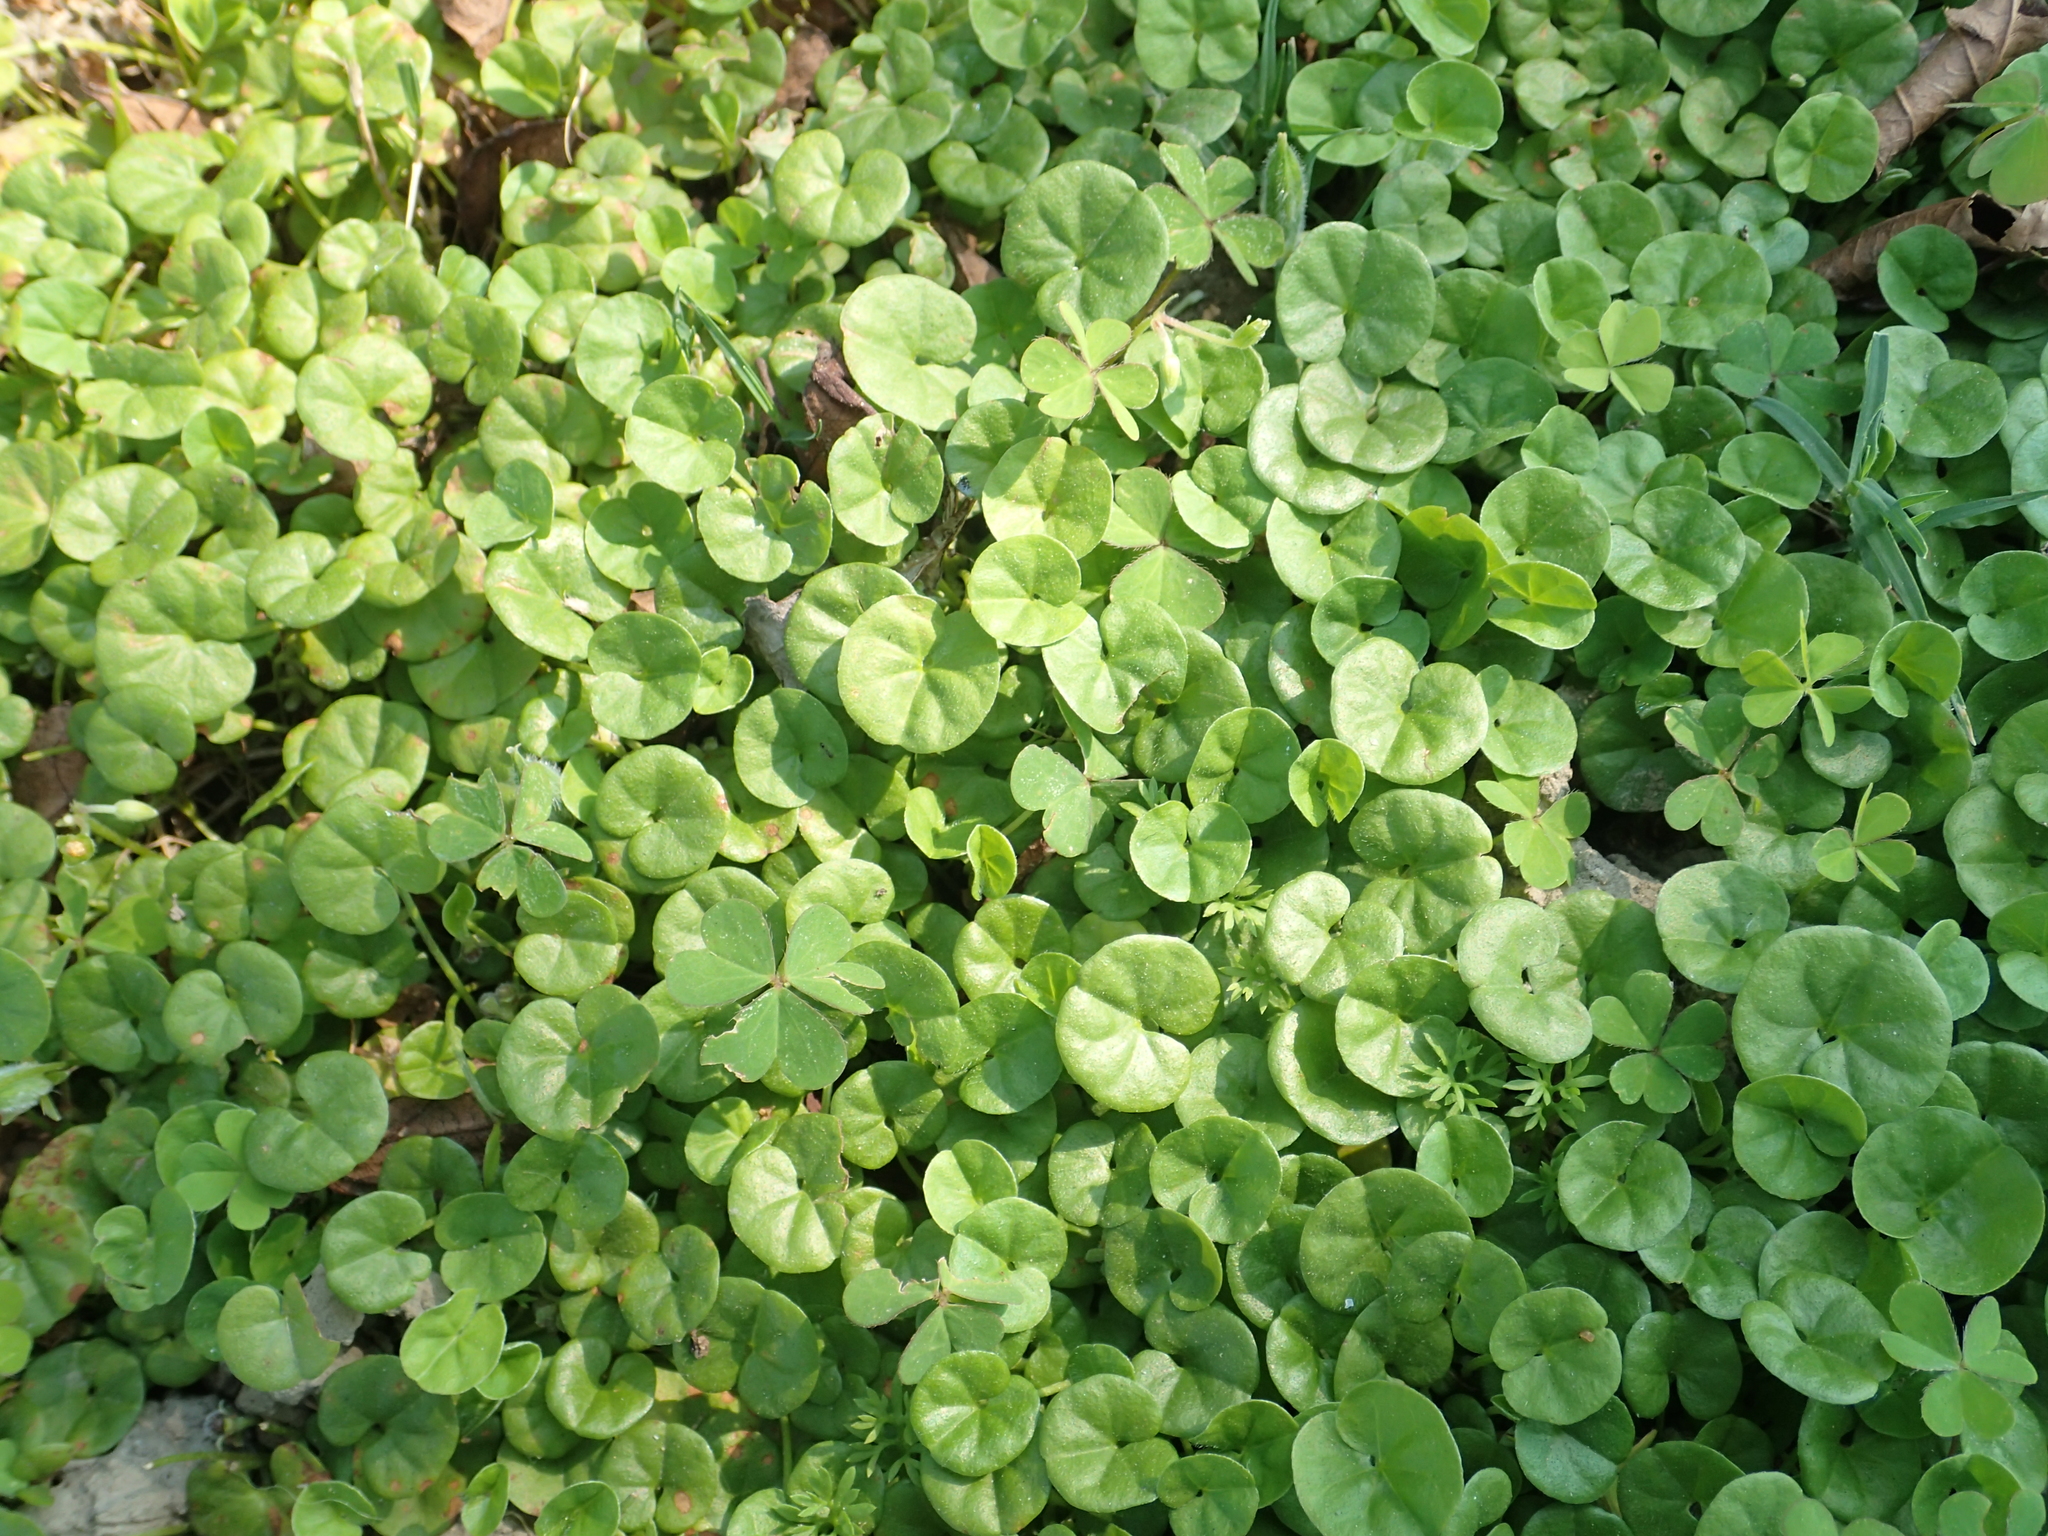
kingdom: Plantae
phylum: Tracheophyta
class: Magnoliopsida
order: Solanales
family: Convolvulaceae
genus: Dichondra
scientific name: Dichondra micrantha
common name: Kidneyweed
